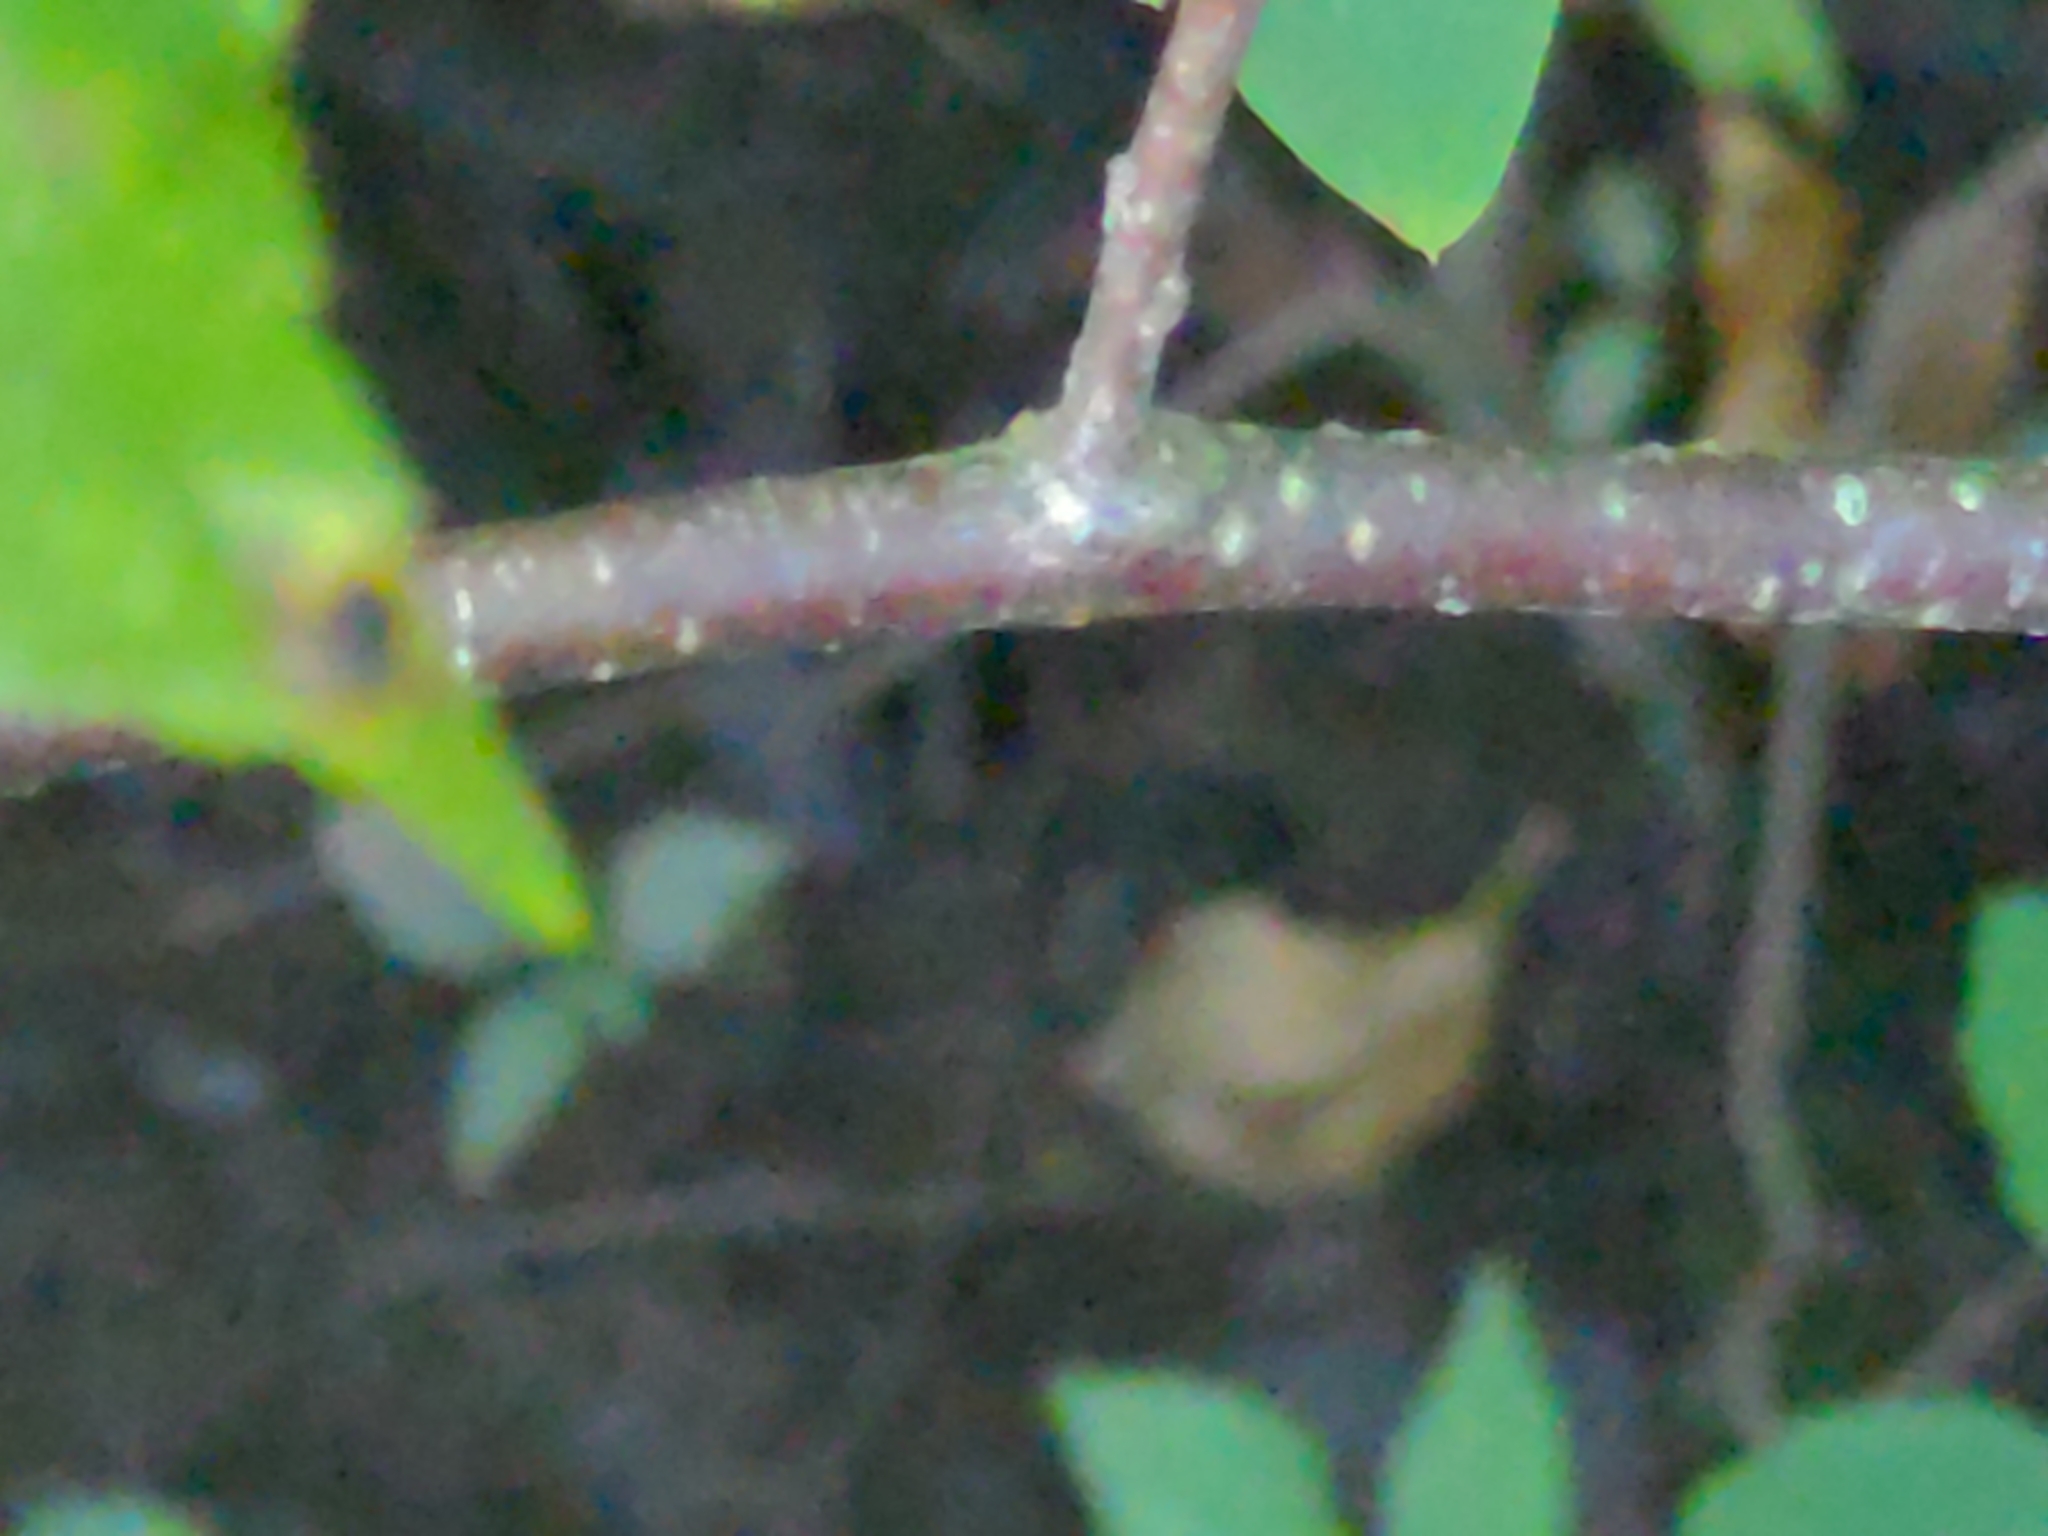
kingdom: Plantae
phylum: Tracheophyta
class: Magnoliopsida
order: Aquifoliales
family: Aquifoliaceae
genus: Ilex
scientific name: Ilex verticillata
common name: Virginia winterberry
